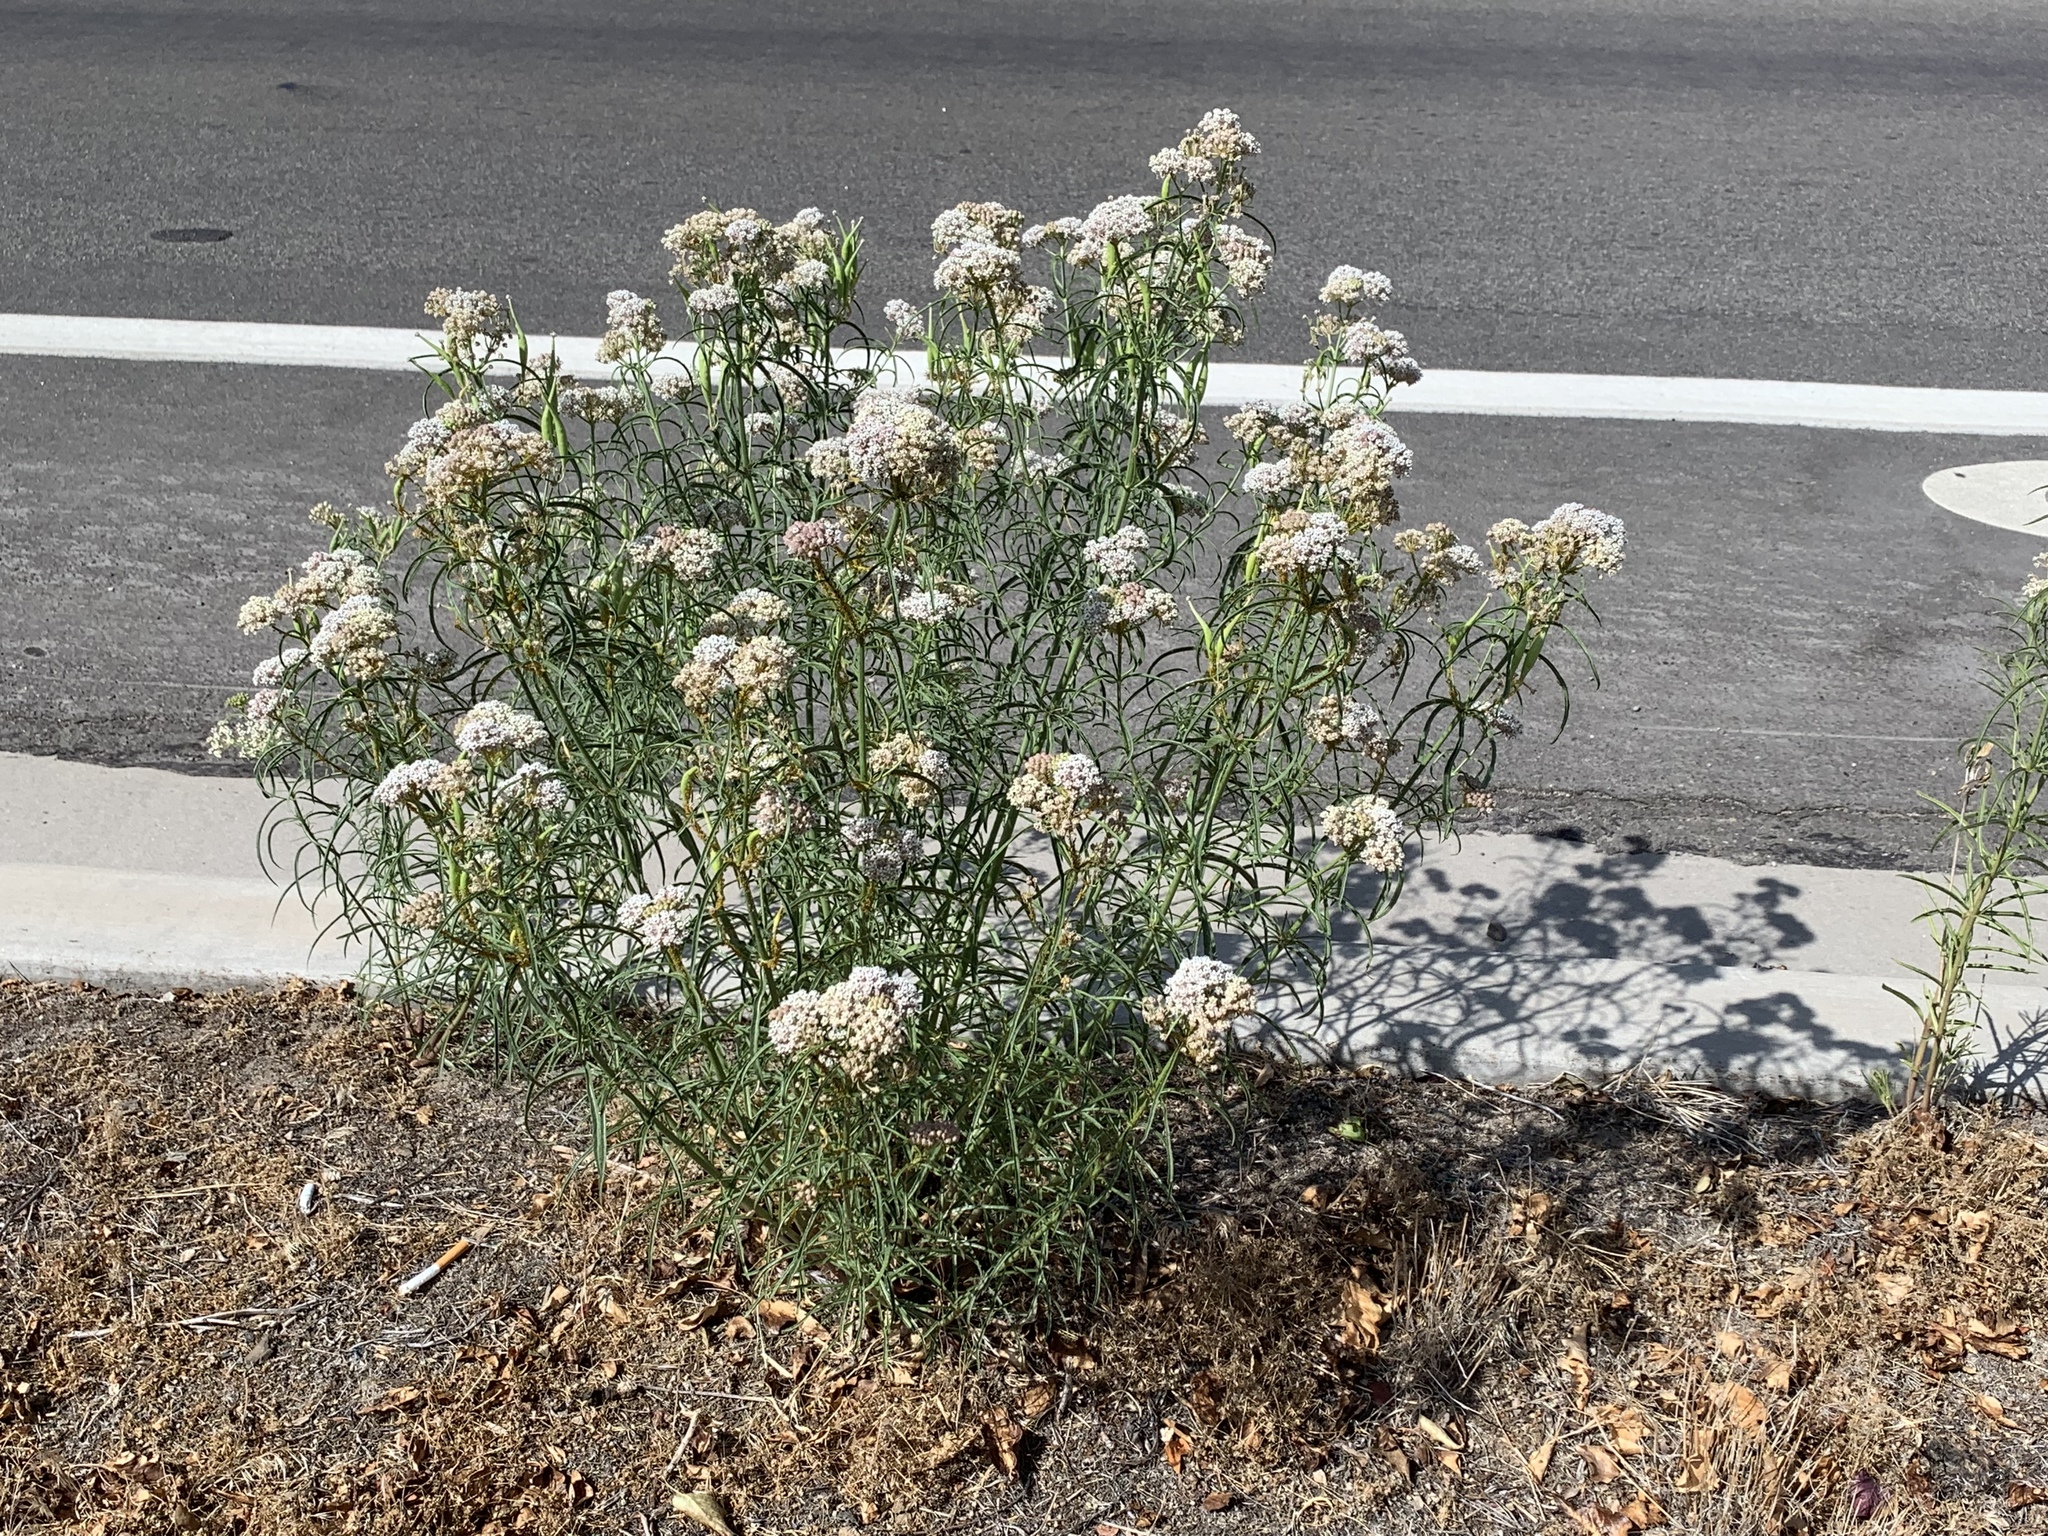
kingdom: Plantae
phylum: Tracheophyta
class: Magnoliopsida
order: Gentianales
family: Apocynaceae
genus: Asclepias
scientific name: Asclepias fascicularis
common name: Mexican milkweed
